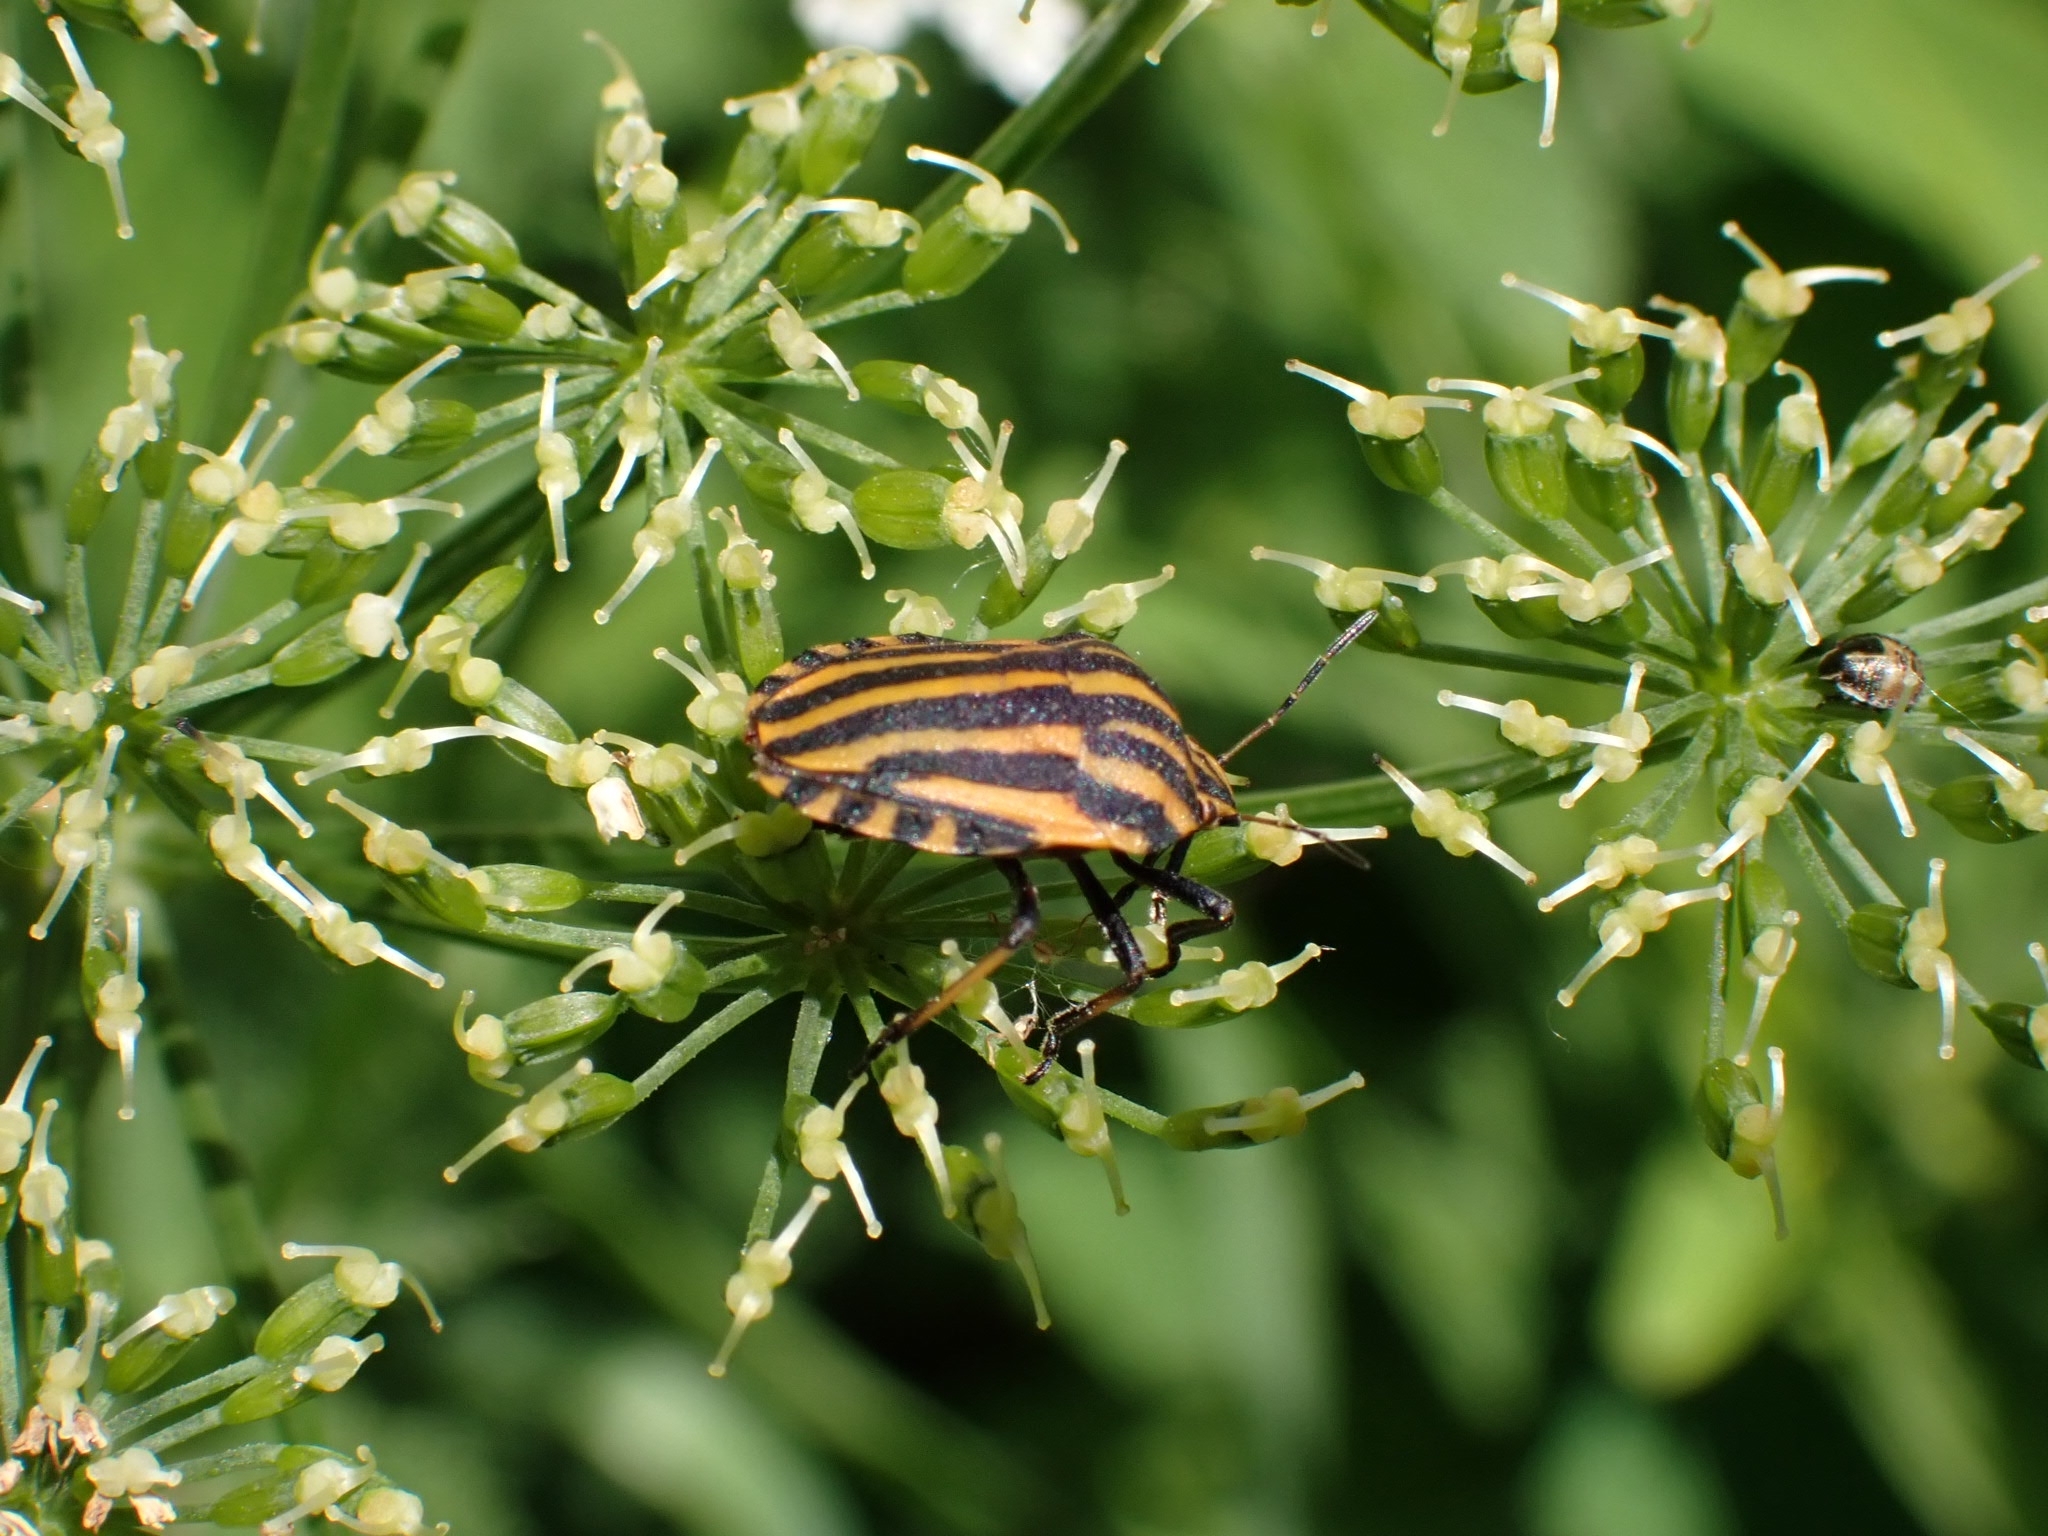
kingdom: Animalia
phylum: Arthropoda
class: Insecta
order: Hemiptera
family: Pentatomidae
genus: Graphosoma
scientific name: Graphosoma italicum
